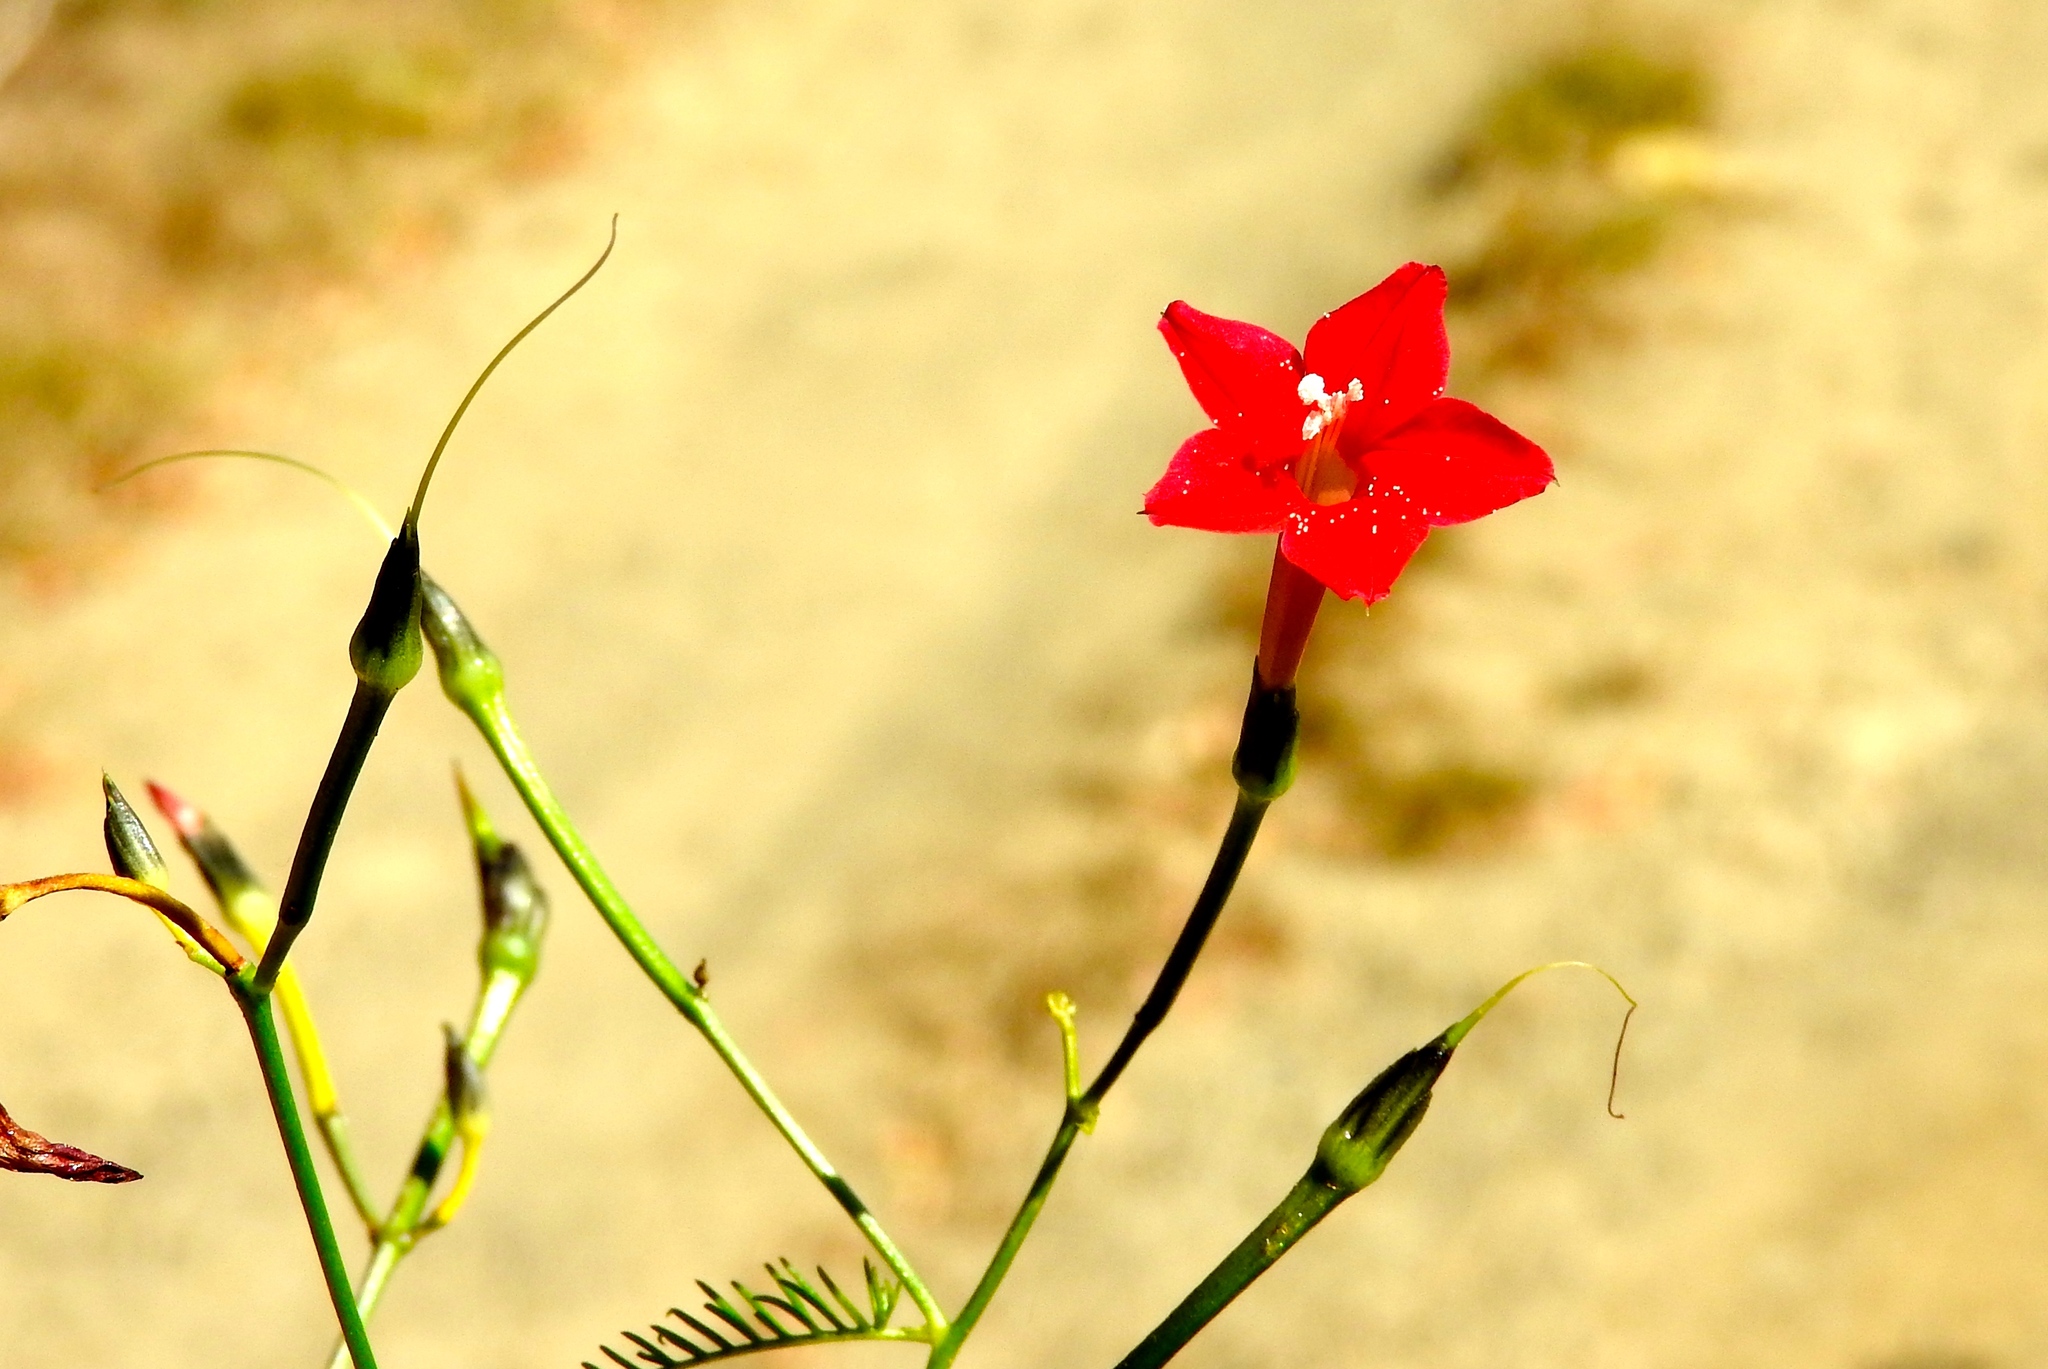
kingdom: Plantae
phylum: Tracheophyta
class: Magnoliopsida
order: Solanales
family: Convolvulaceae
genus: Ipomoea
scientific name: Ipomoea quamoclit
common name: Cypress vine
